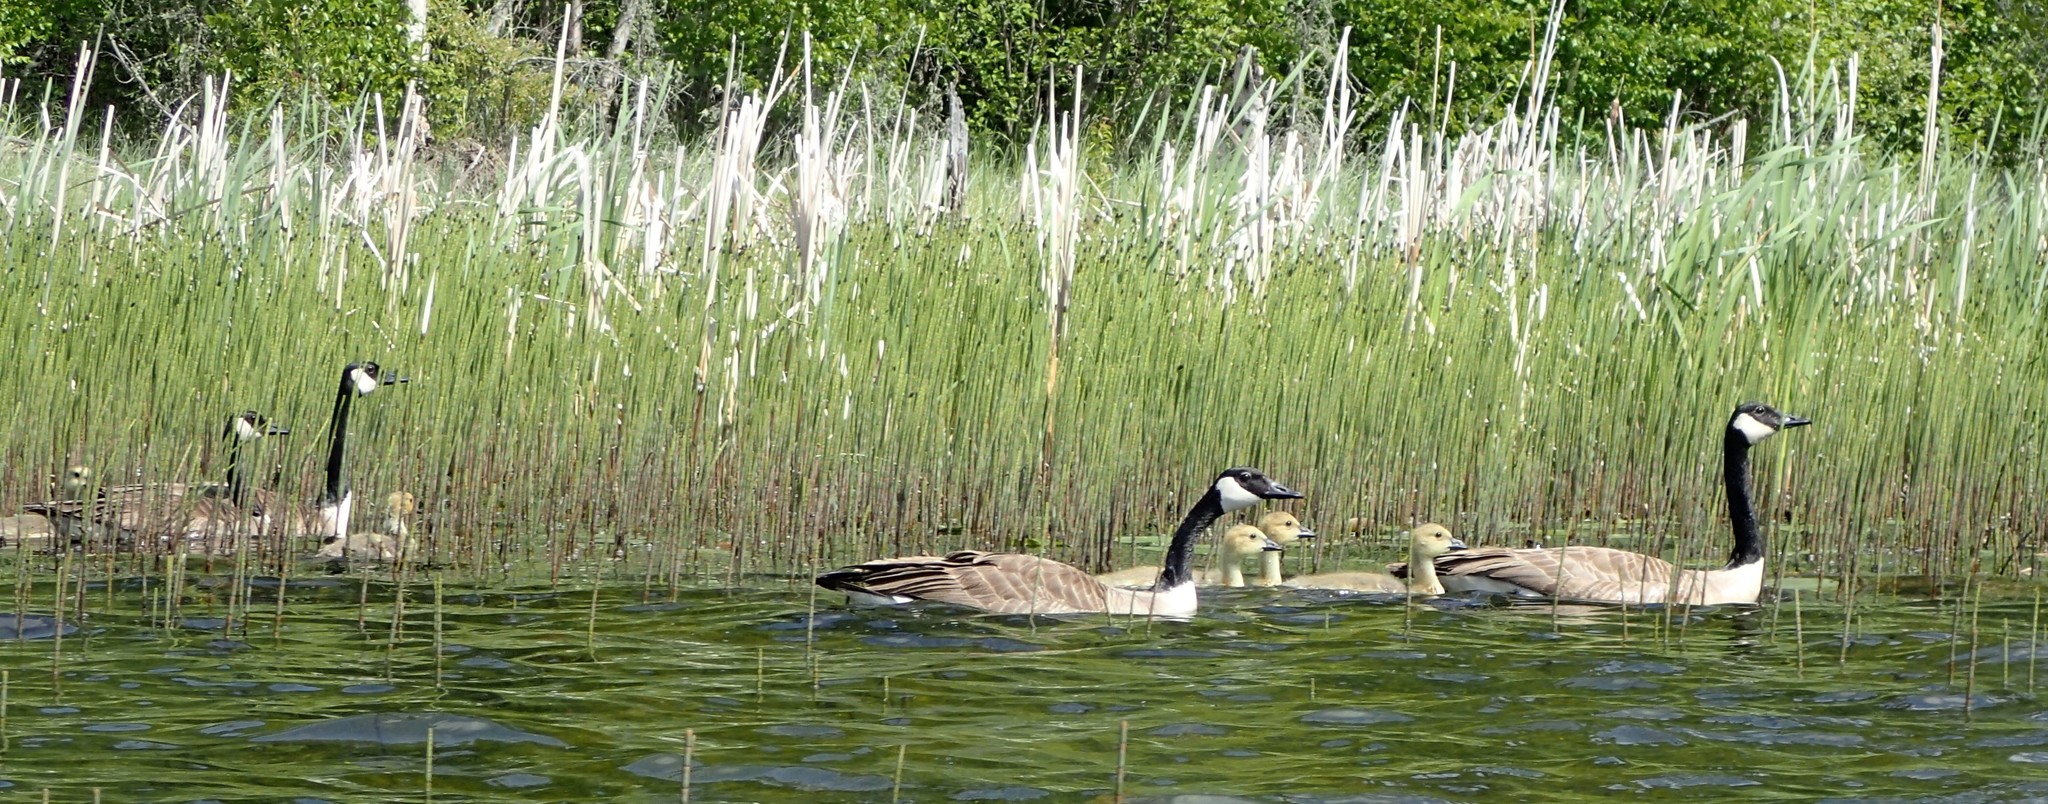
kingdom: Animalia
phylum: Chordata
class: Aves
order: Anseriformes
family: Anatidae
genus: Branta
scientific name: Branta canadensis
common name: Canada goose
